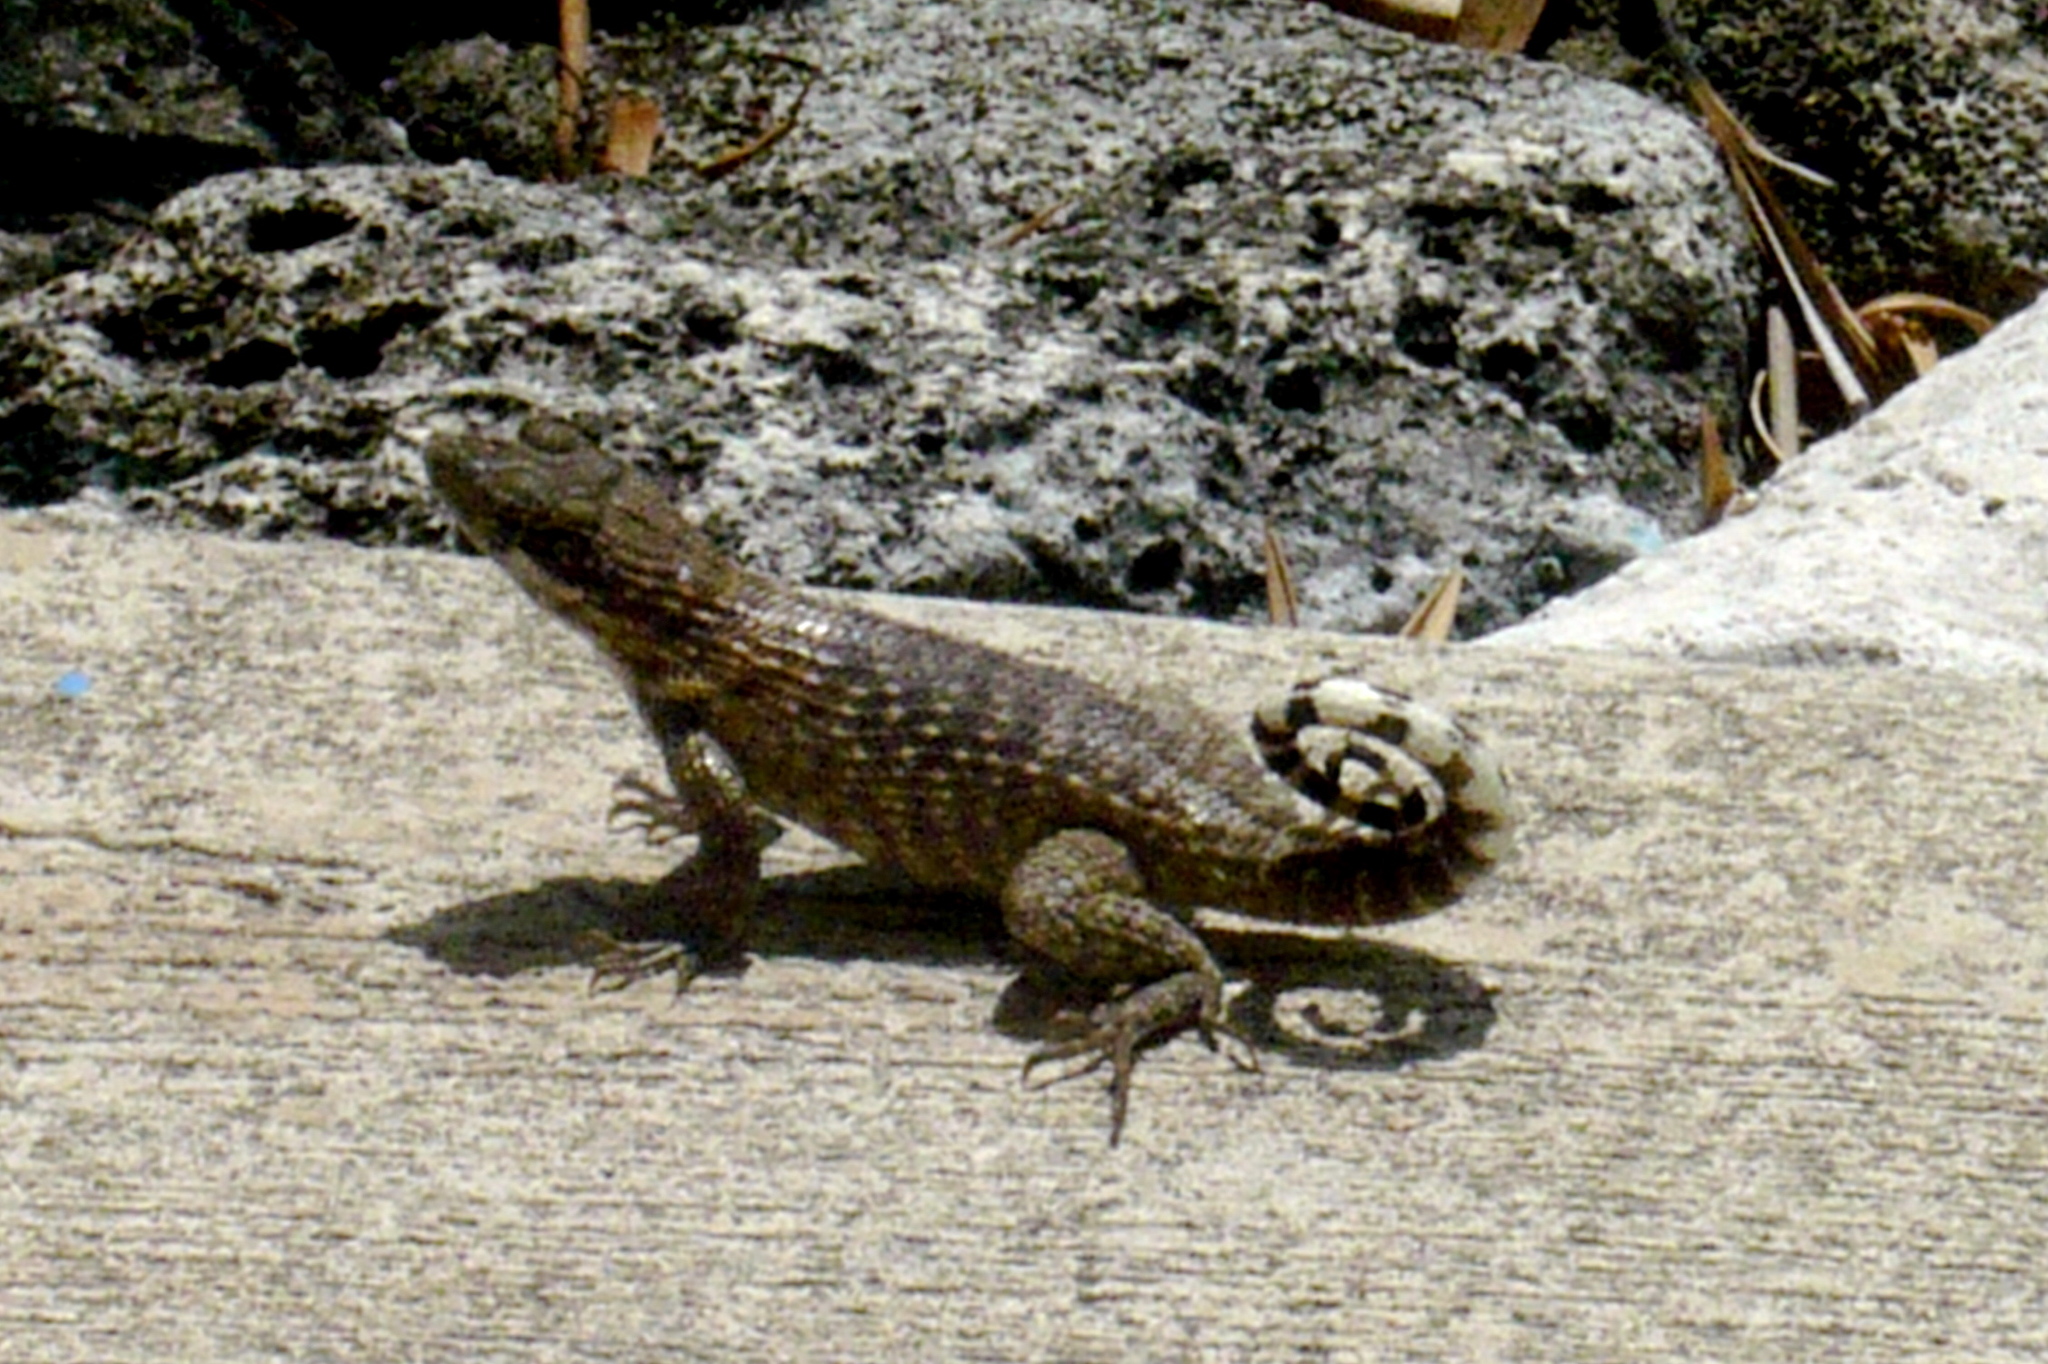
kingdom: Animalia
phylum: Chordata
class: Squamata
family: Leiocephalidae
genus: Leiocephalus
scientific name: Leiocephalus carinatus
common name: Northern curly-tailed lizard
